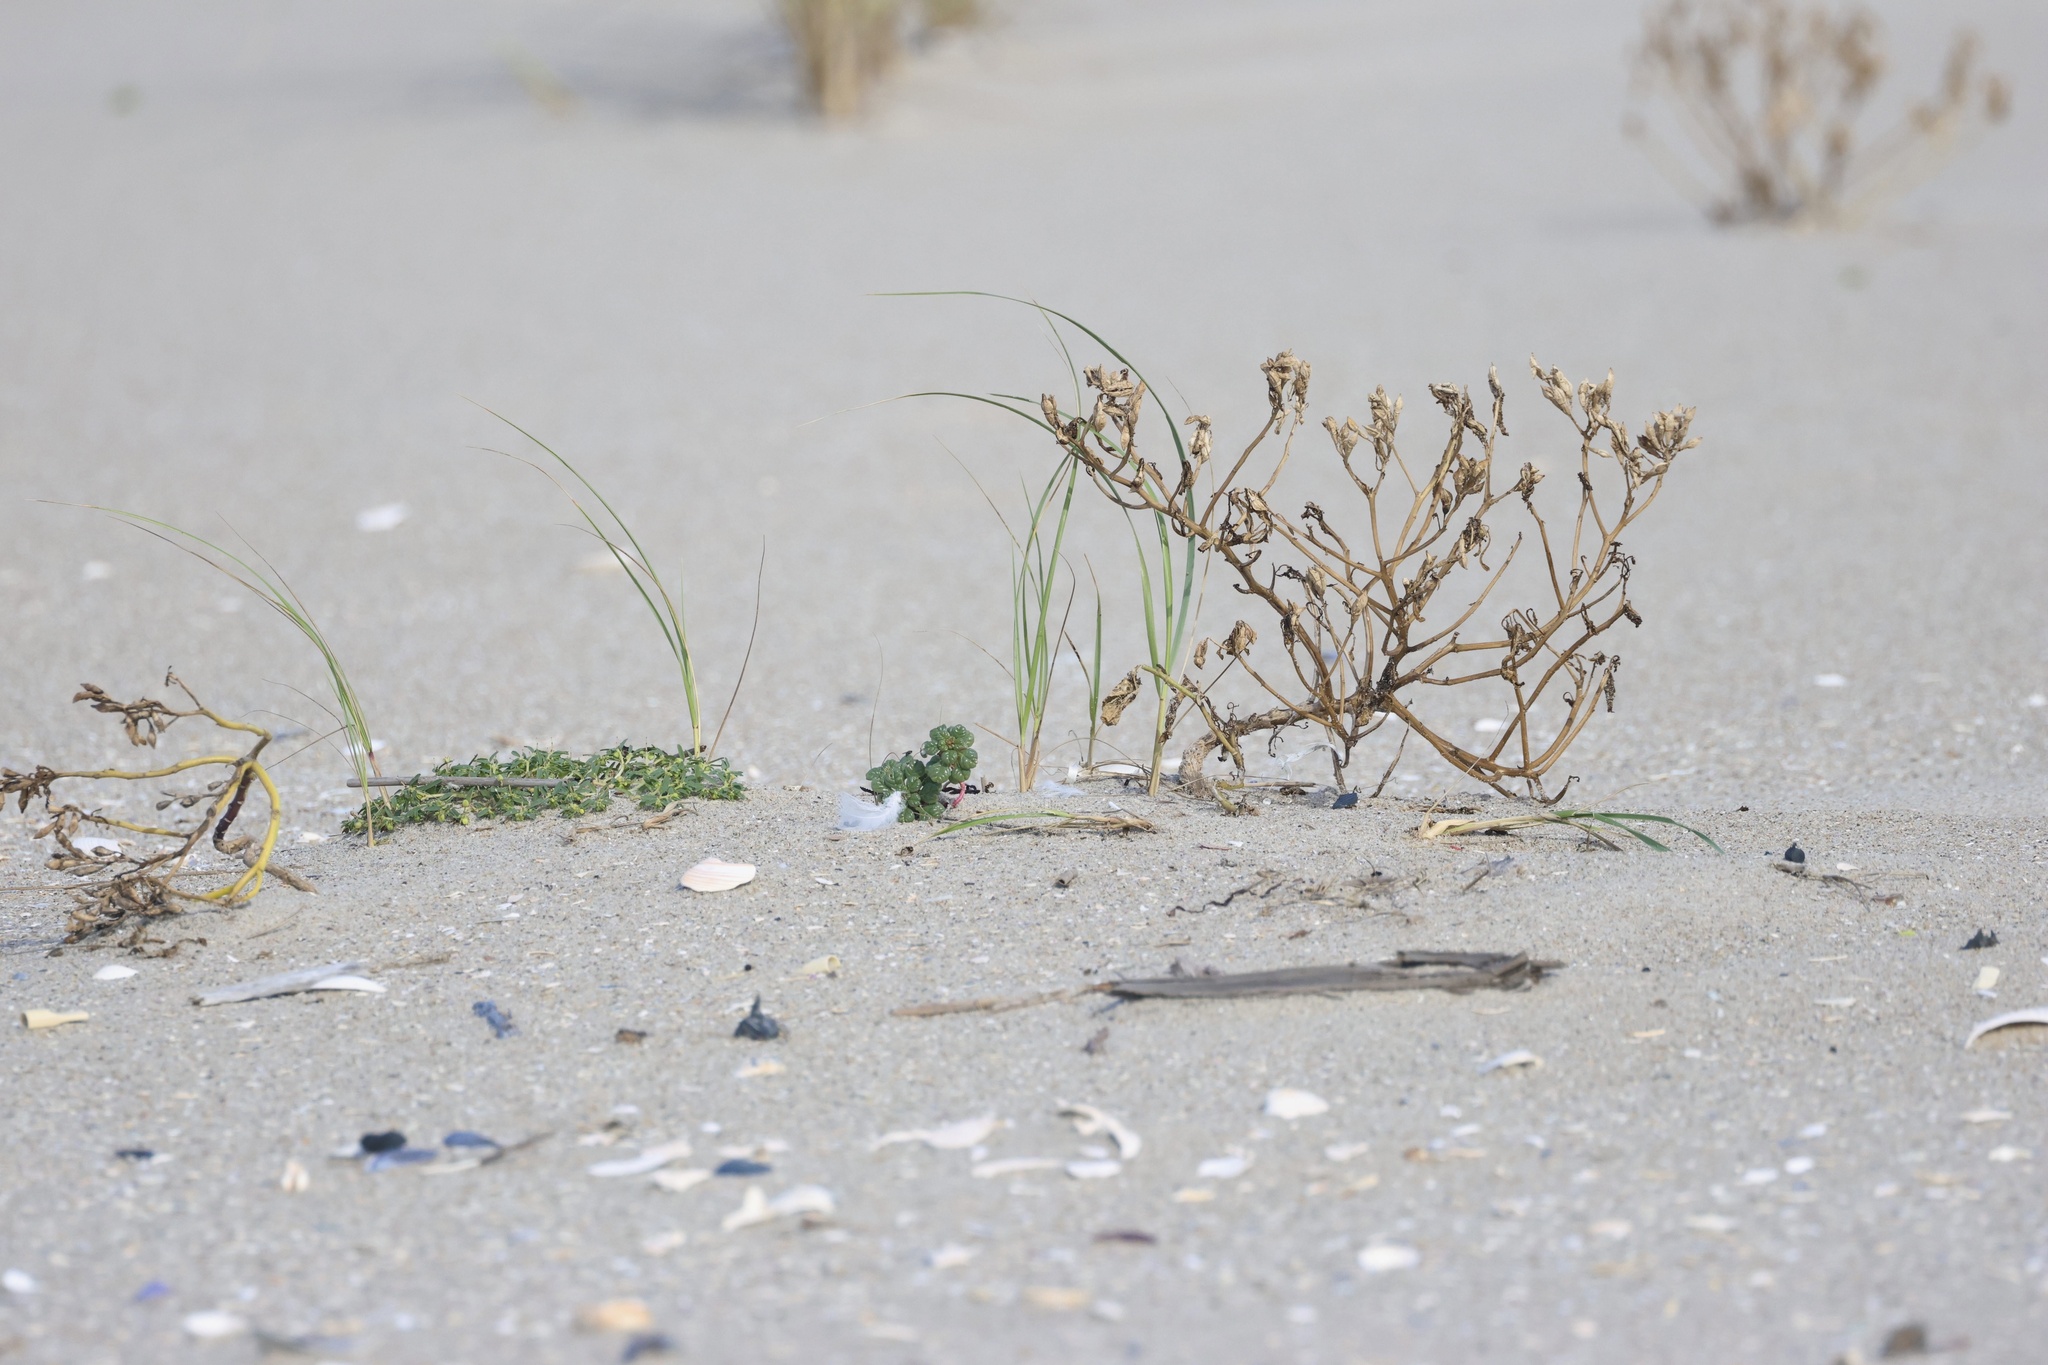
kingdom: Plantae
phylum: Tracheophyta
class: Magnoliopsida
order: Caryophyllales
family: Amaranthaceae
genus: Amaranthus
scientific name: Amaranthus pumilus
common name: Coast amaranth
